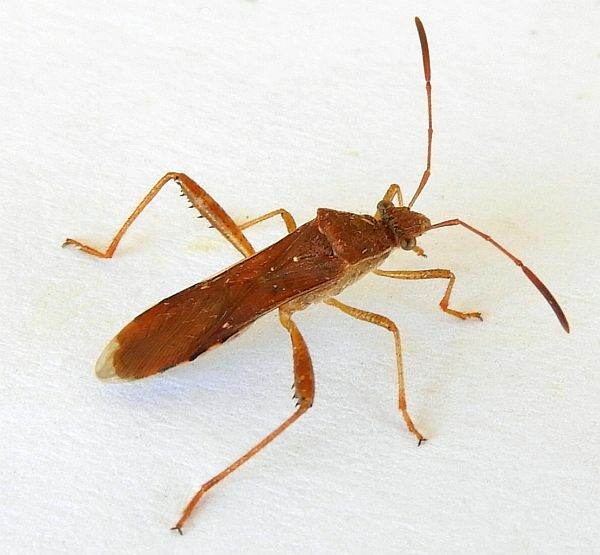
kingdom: Animalia
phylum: Arthropoda
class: Insecta
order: Hemiptera
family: Alydidae
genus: Burtinus
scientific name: Burtinus notatipennis
